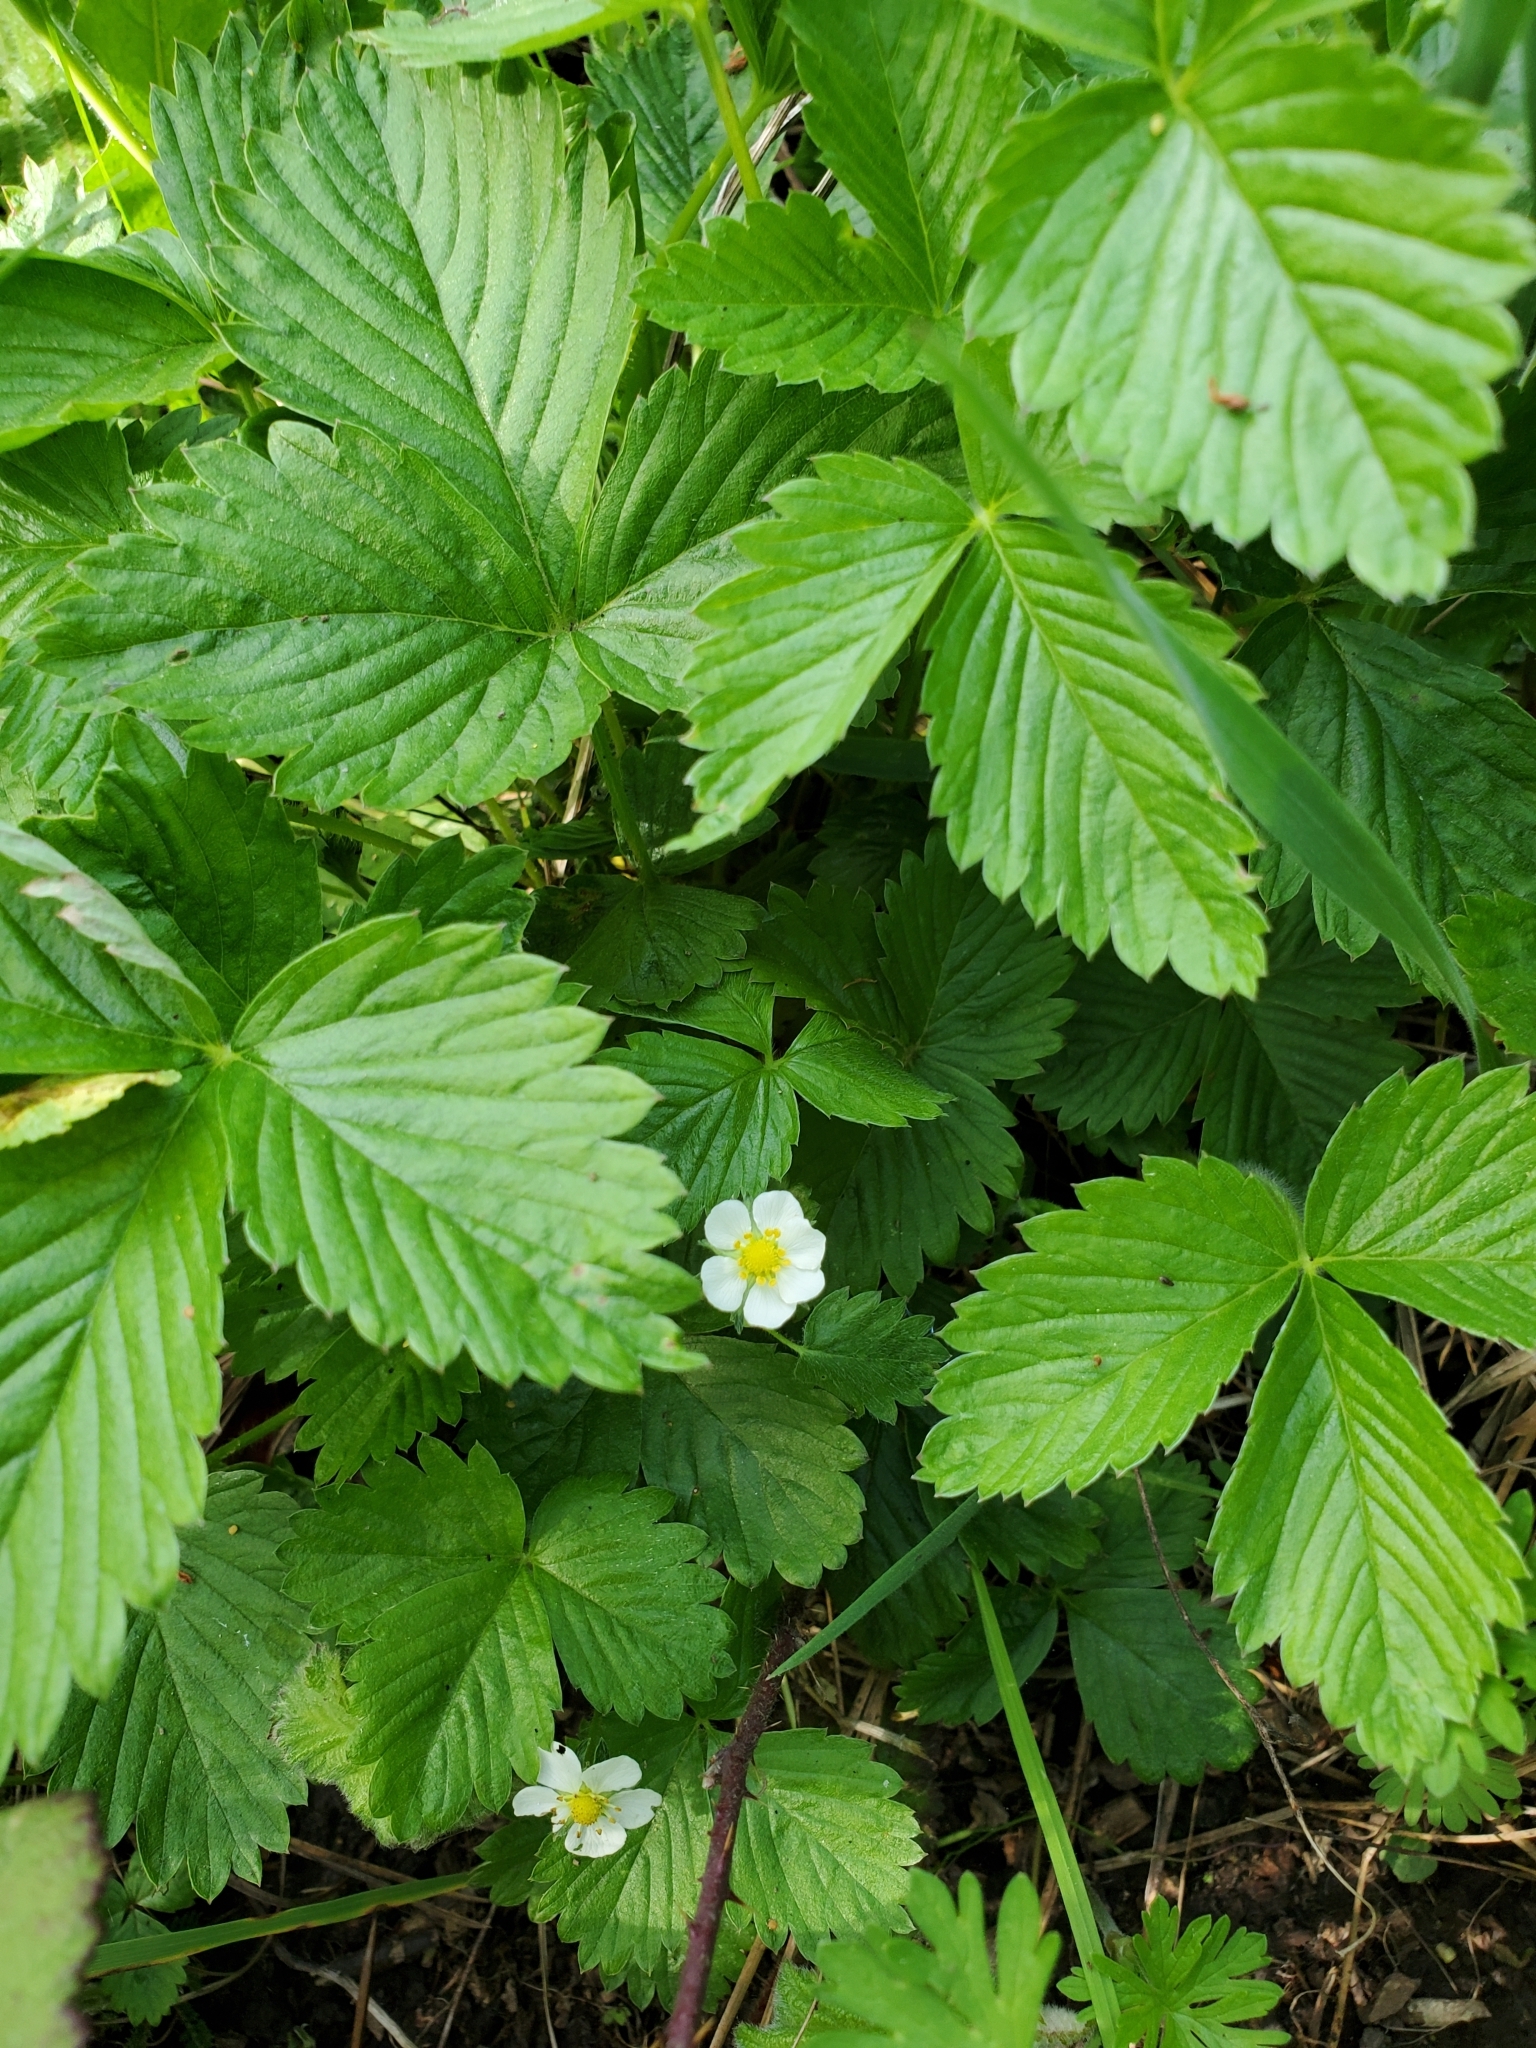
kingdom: Plantae
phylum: Tracheophyta
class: Magnoliopsida
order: Rosales
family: Rosaceae
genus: Fragaria
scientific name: Fragaria vesca
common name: Wild strawberry
